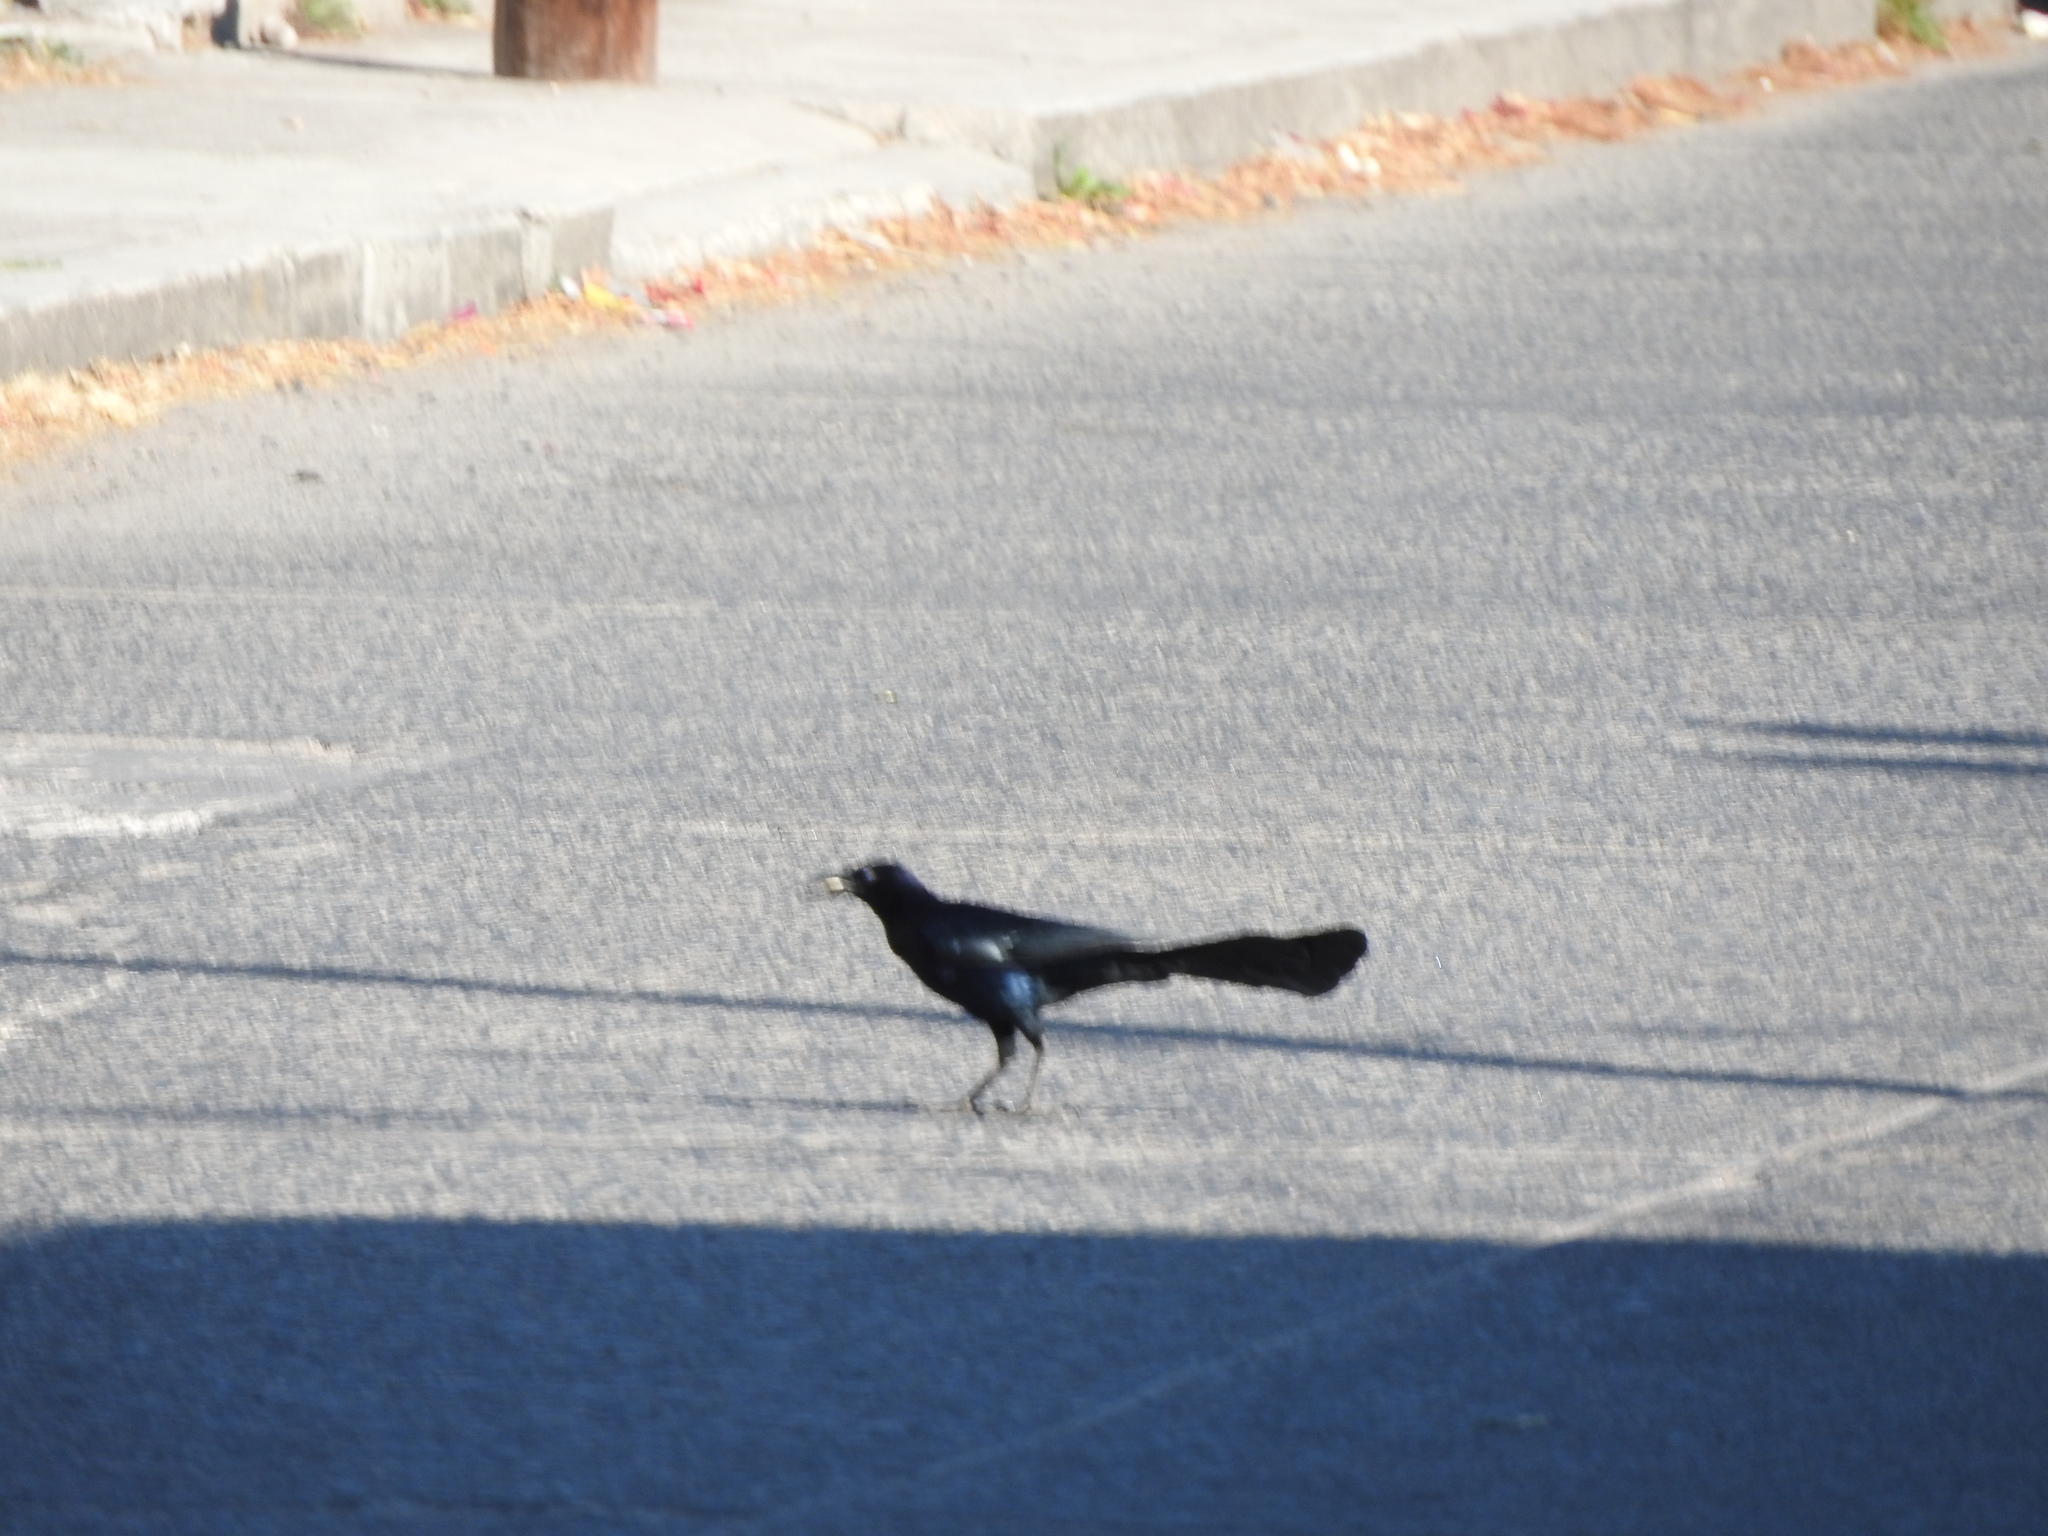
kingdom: Animalia
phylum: Chordata
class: Aves
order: Passeriformes
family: Icteridae
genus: Quiscalus
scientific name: Quiscalus mexicanus
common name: Great-tailed grackle
